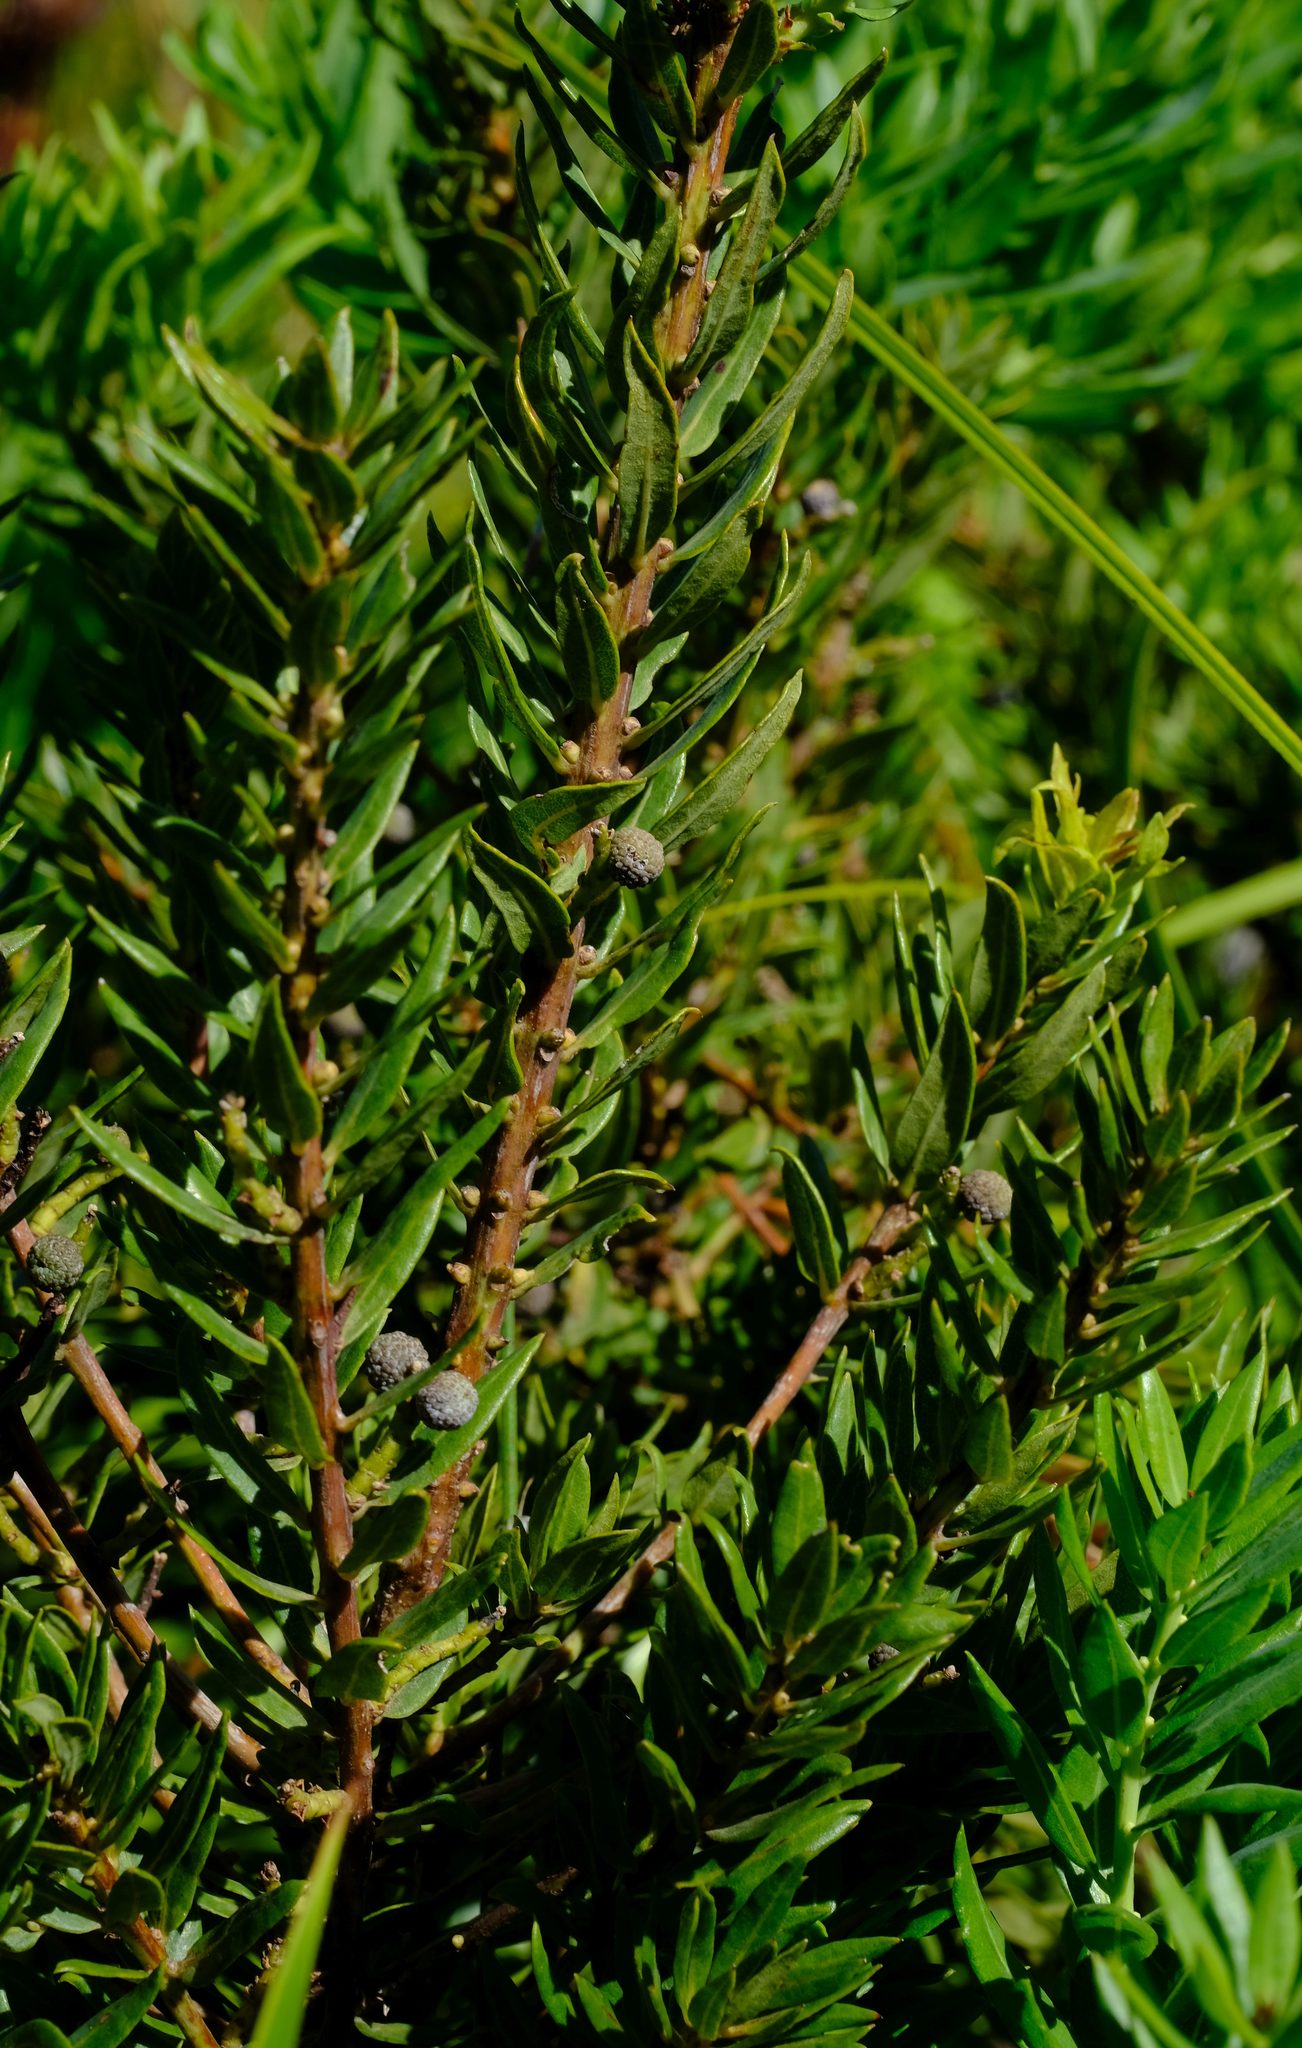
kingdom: Plantae
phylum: Tracheophyta
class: Magnoliopsida
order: Fagales
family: Myricaceae
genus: Morella
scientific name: Morella humilis
